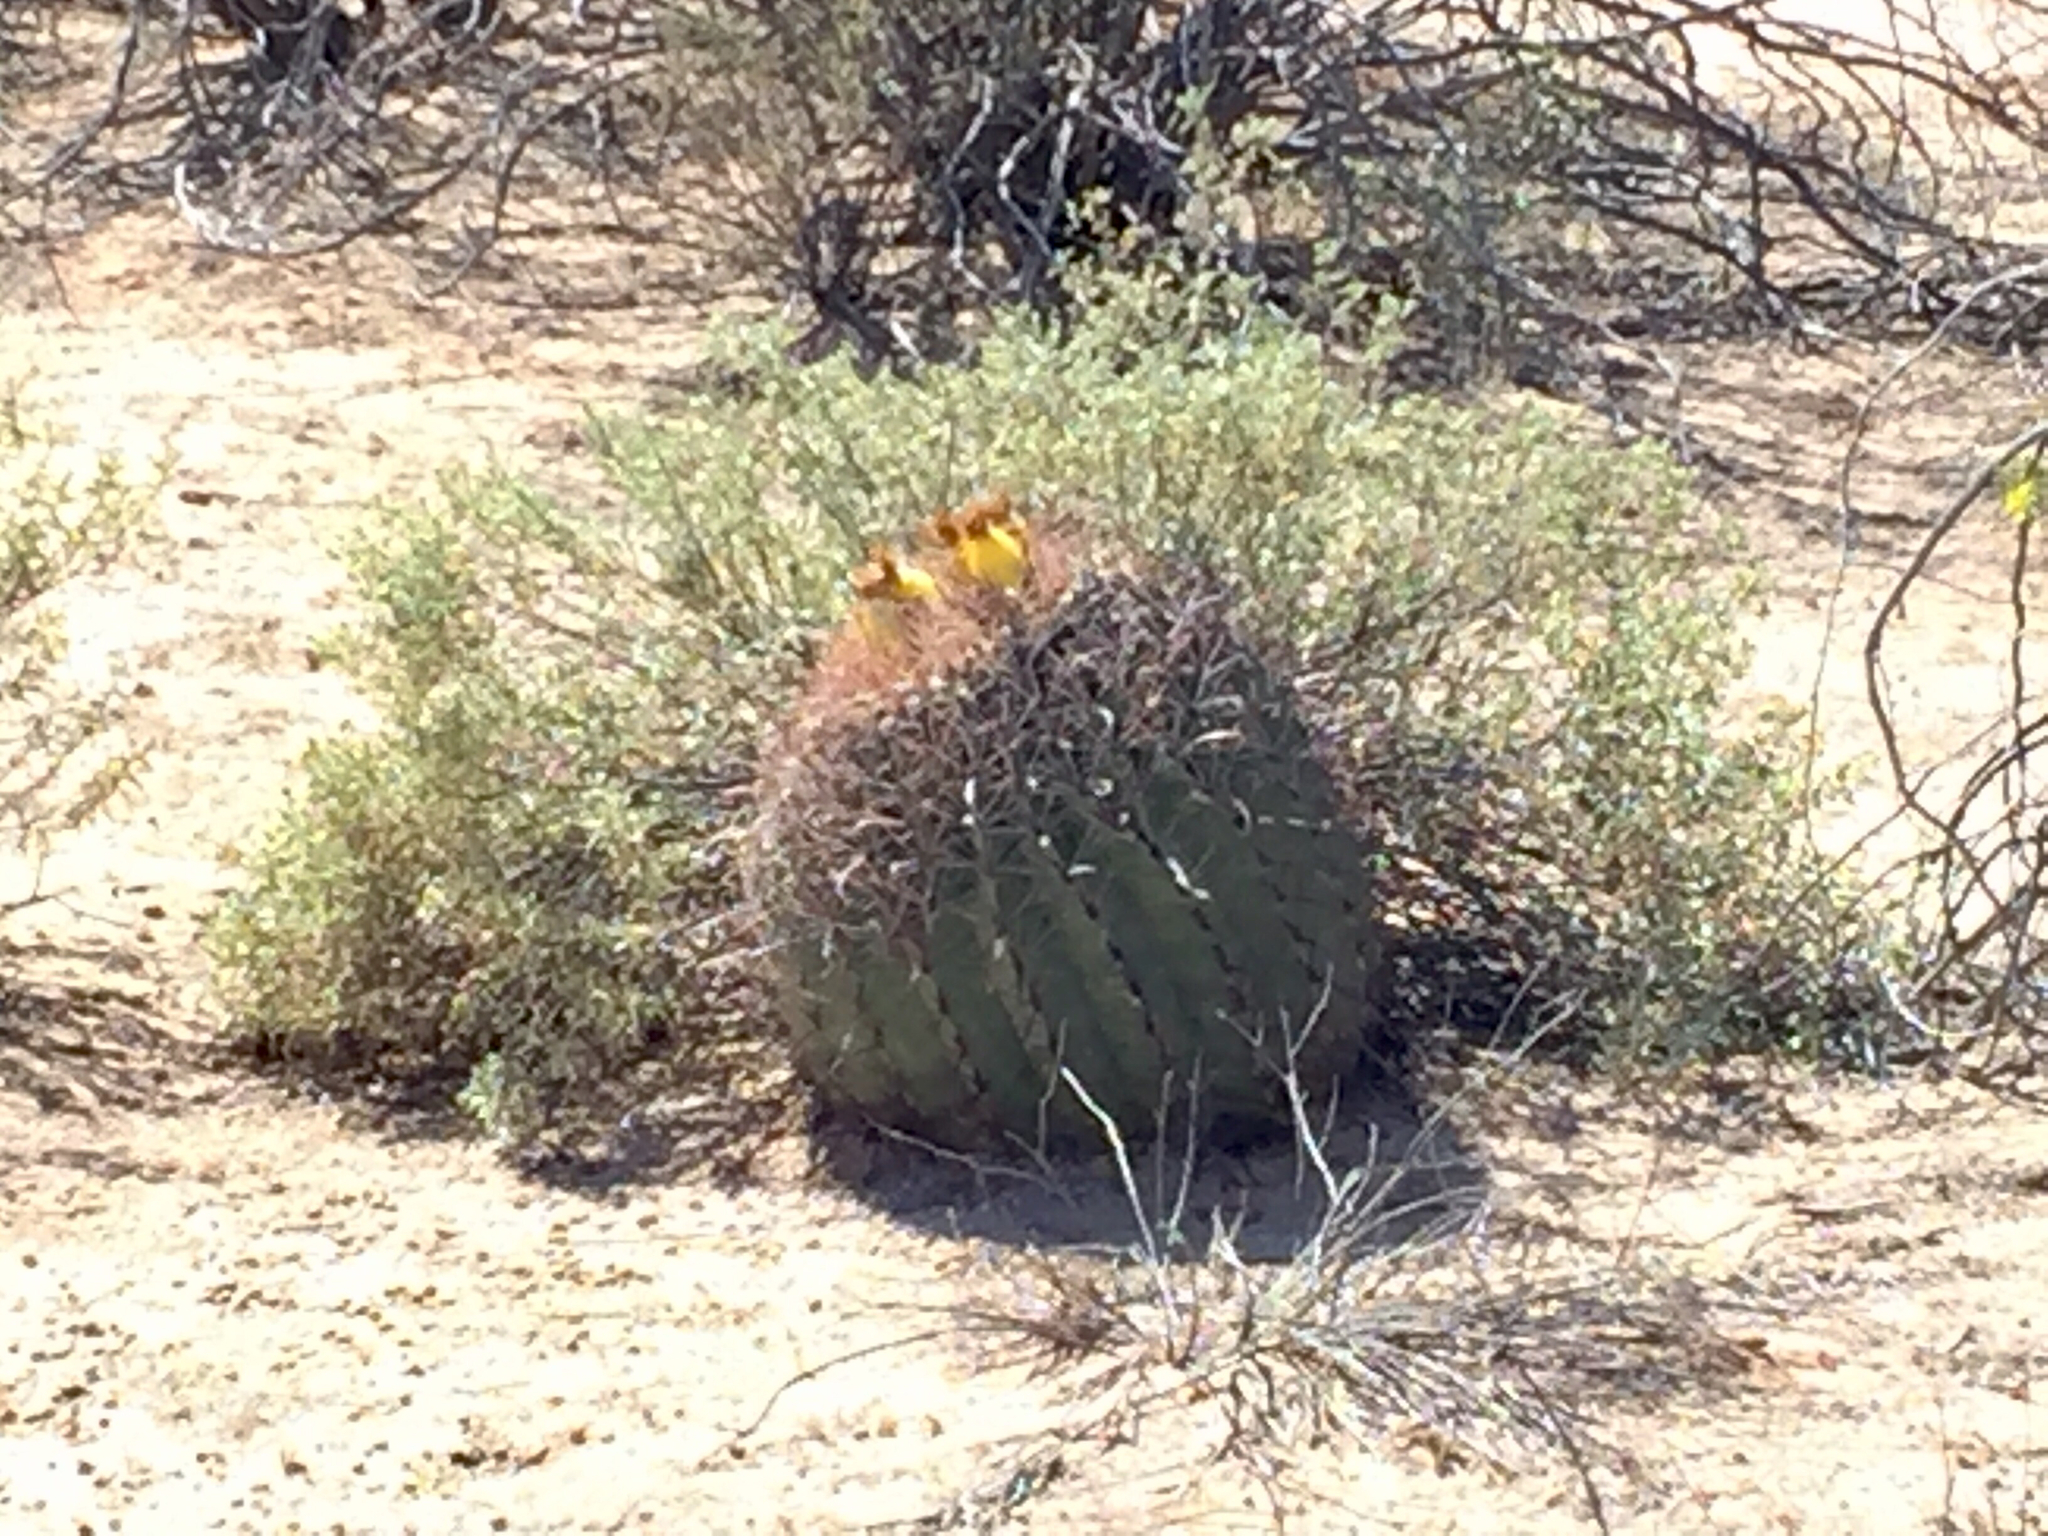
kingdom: Plantae
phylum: Tracheophyta
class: Magnoliopsida
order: Caryophyllales
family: Cactaceae
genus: Ferocactus
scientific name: Ferocactus wislizeni
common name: Candy barrel cactus
